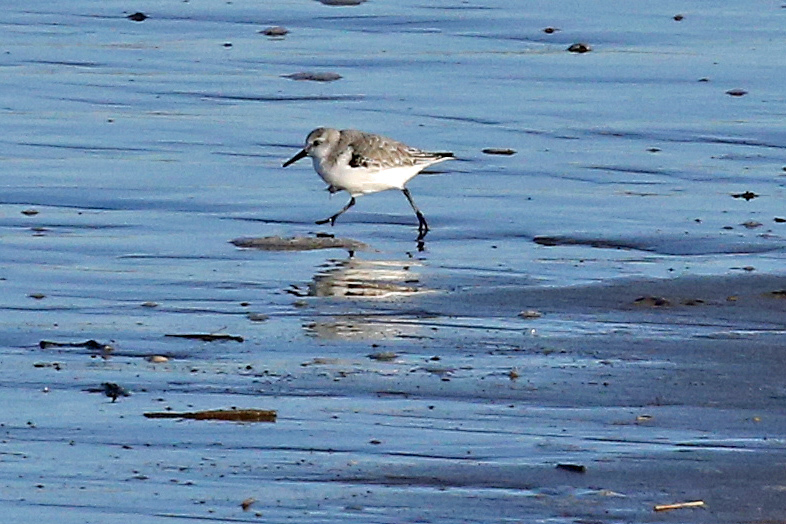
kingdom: Animalia
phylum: Chordata
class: Aves
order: Charadriiformes
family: Scolopacidae
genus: Calidris
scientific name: Calidris alba
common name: Sanderling
